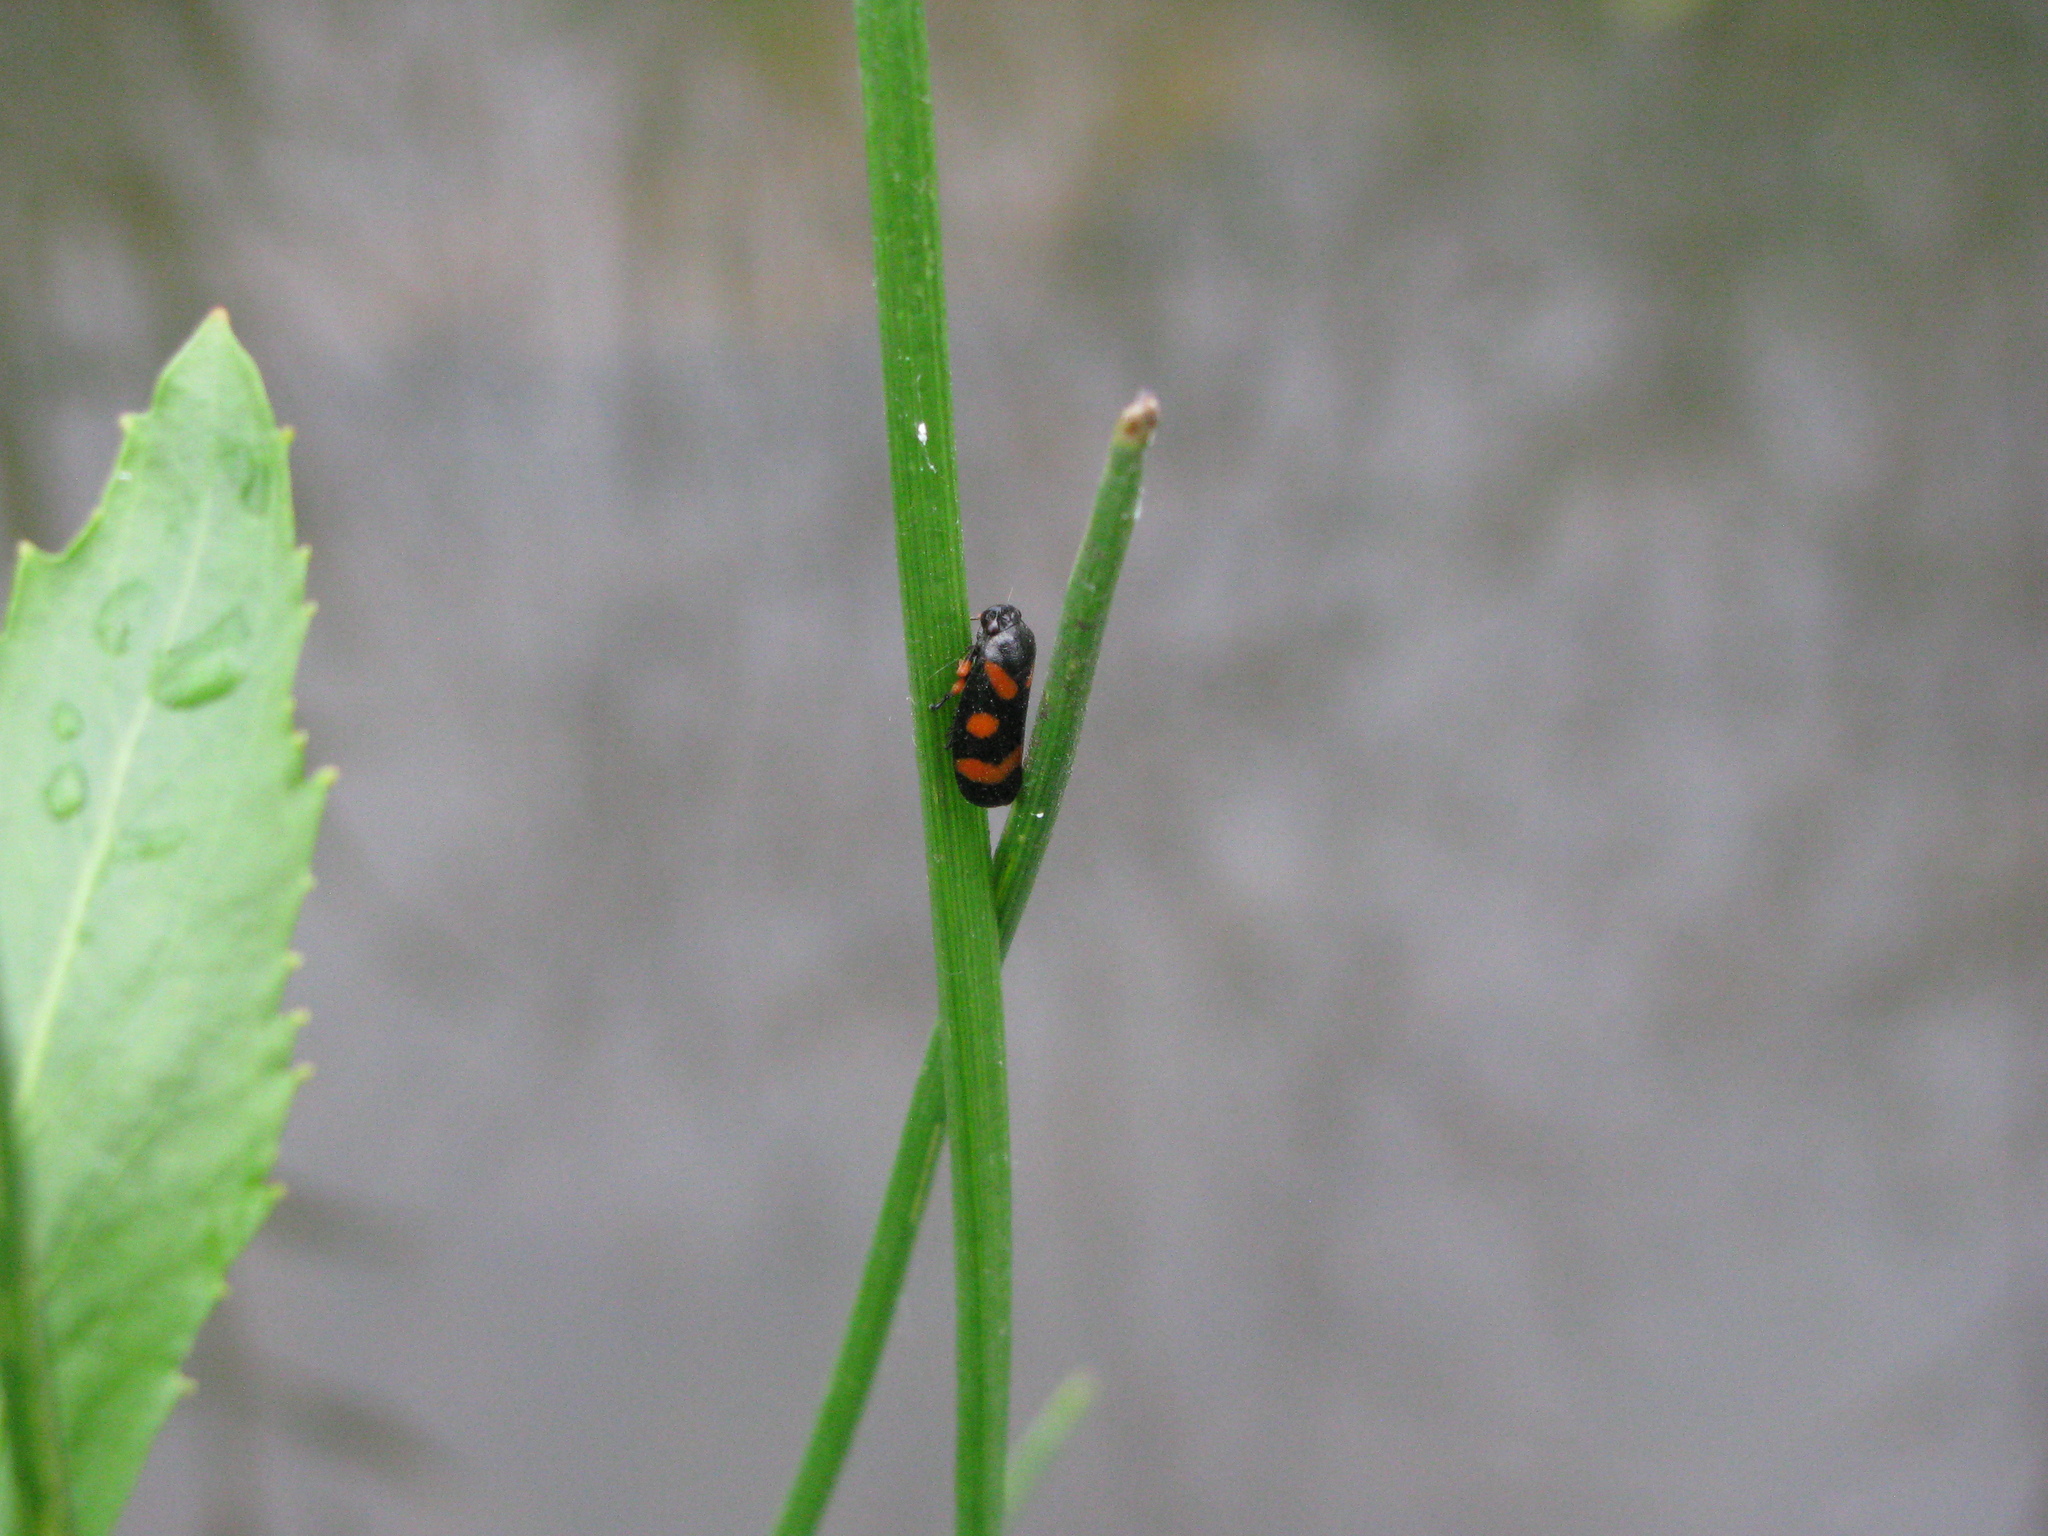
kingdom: Animalia
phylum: Arthropoda
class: Insecta
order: Hemiptera
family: Cercopidae
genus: Cercopis
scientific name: Cercopis intermedia
